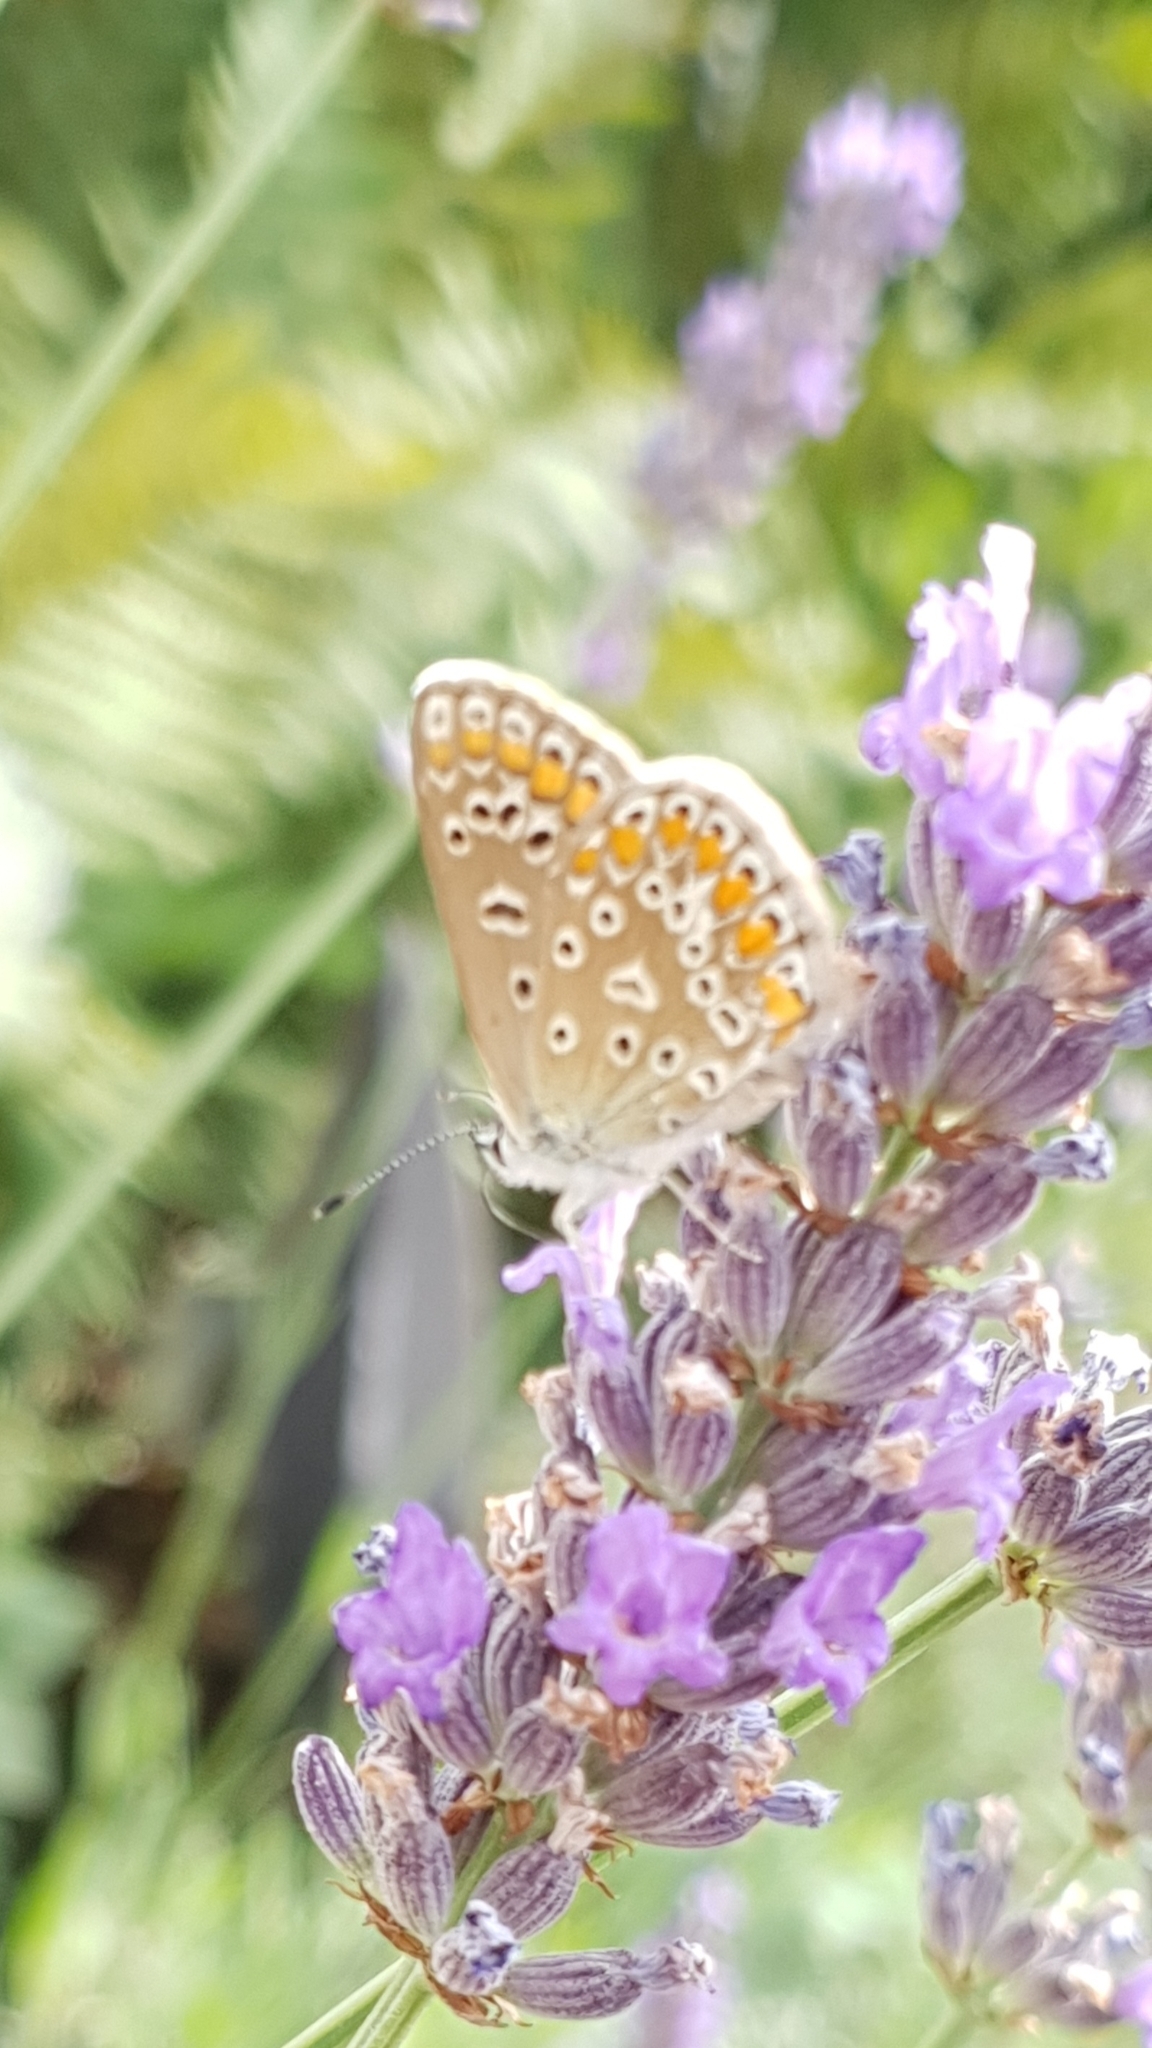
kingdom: Animalia
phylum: Arthropoda
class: Insecta
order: Lepidoptera
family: Lycaenidae
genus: Polyommatus
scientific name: Polyommatus icarus
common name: Common blue
